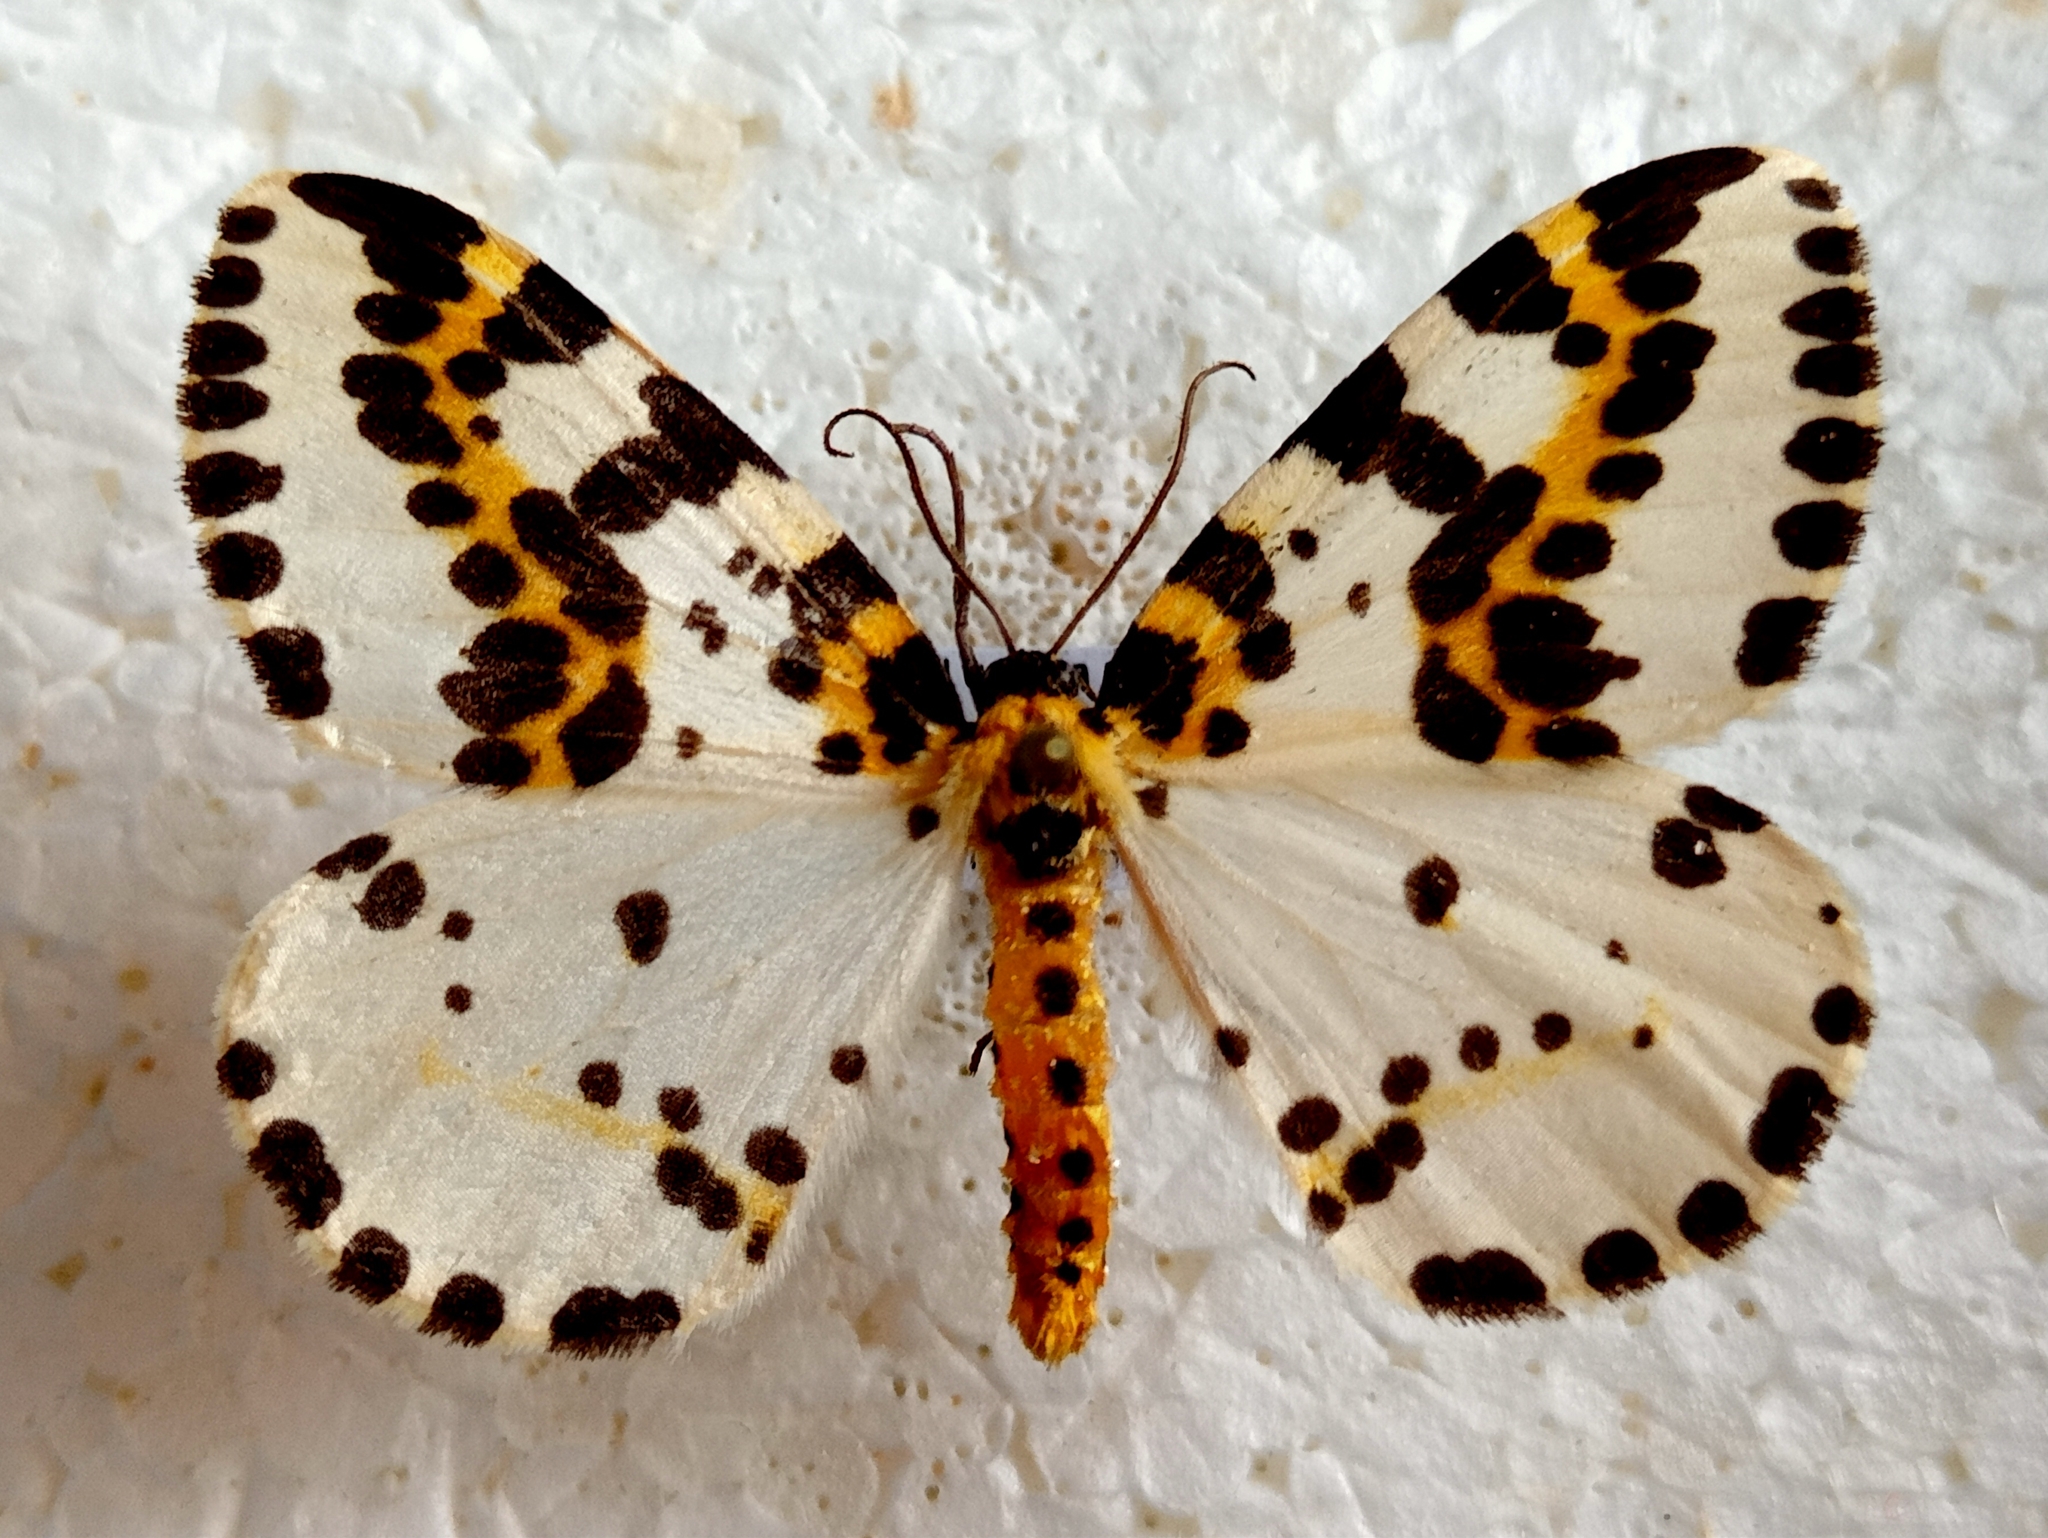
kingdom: Animalia
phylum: Arthropoda
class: Insecta
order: Lepidoptera
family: Geometridae
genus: Abraxas
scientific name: Abraxas grossulariata
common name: Magpie
